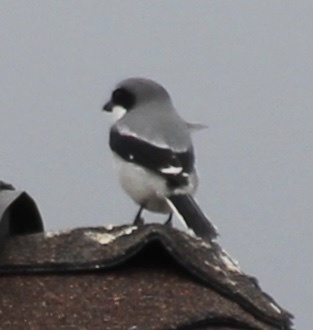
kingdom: Animalia
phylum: Chordata
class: Aves
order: Passeriformes
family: Laniidae
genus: Lanius
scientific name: Lanius ludovicianus
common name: Loggerhead shrike
